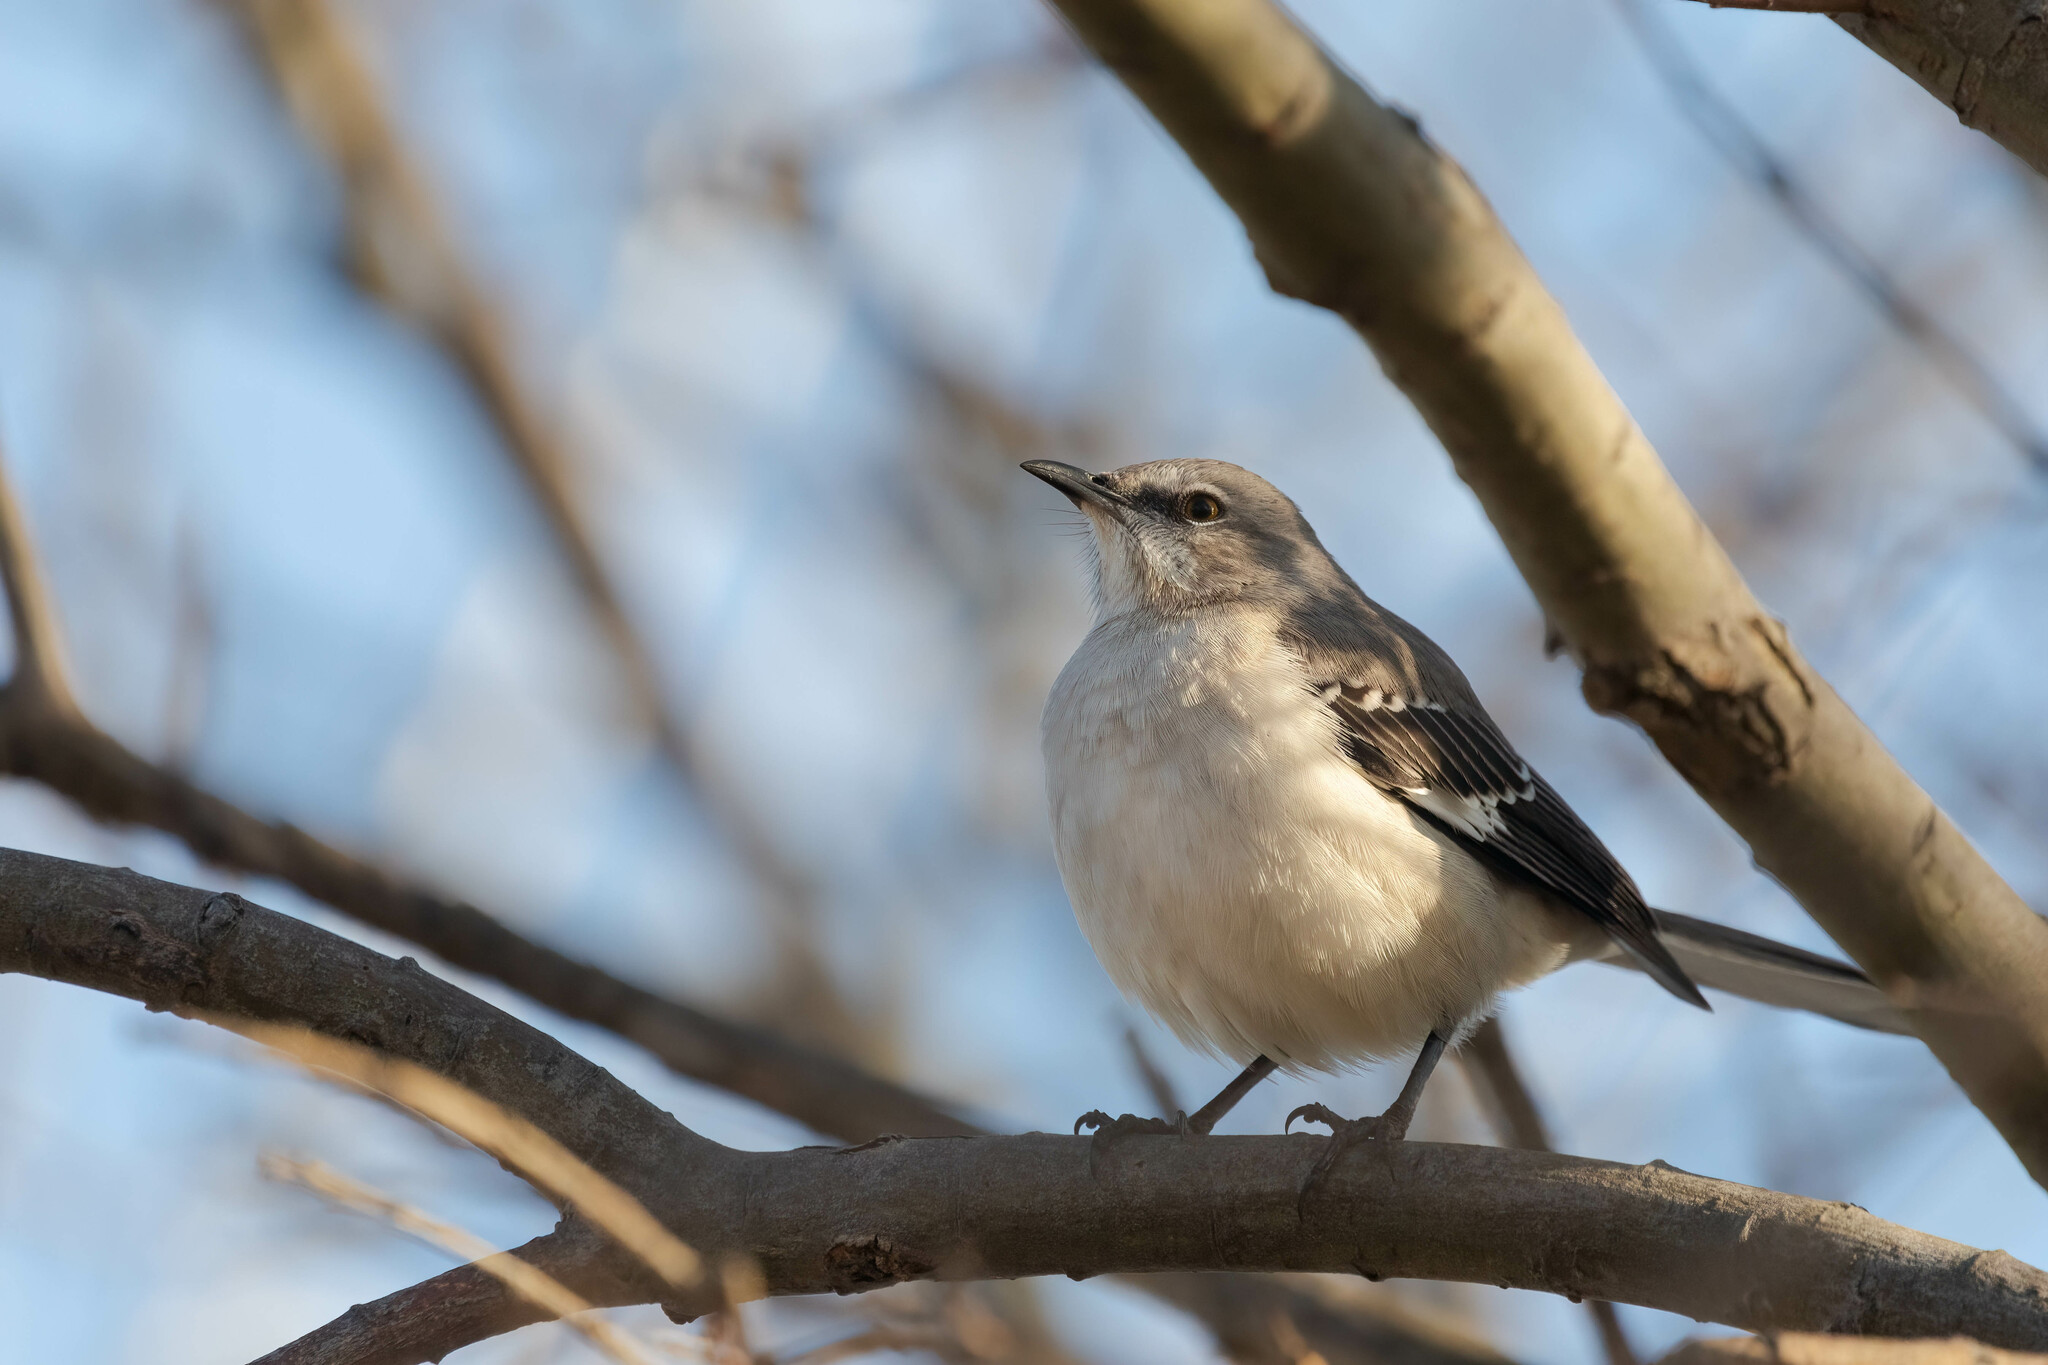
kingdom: Animalia
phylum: Chordata
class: Aves
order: Passeriformes
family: Mimidae
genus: Mimus
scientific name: Mimus polyglottos
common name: Northern mockingbird
